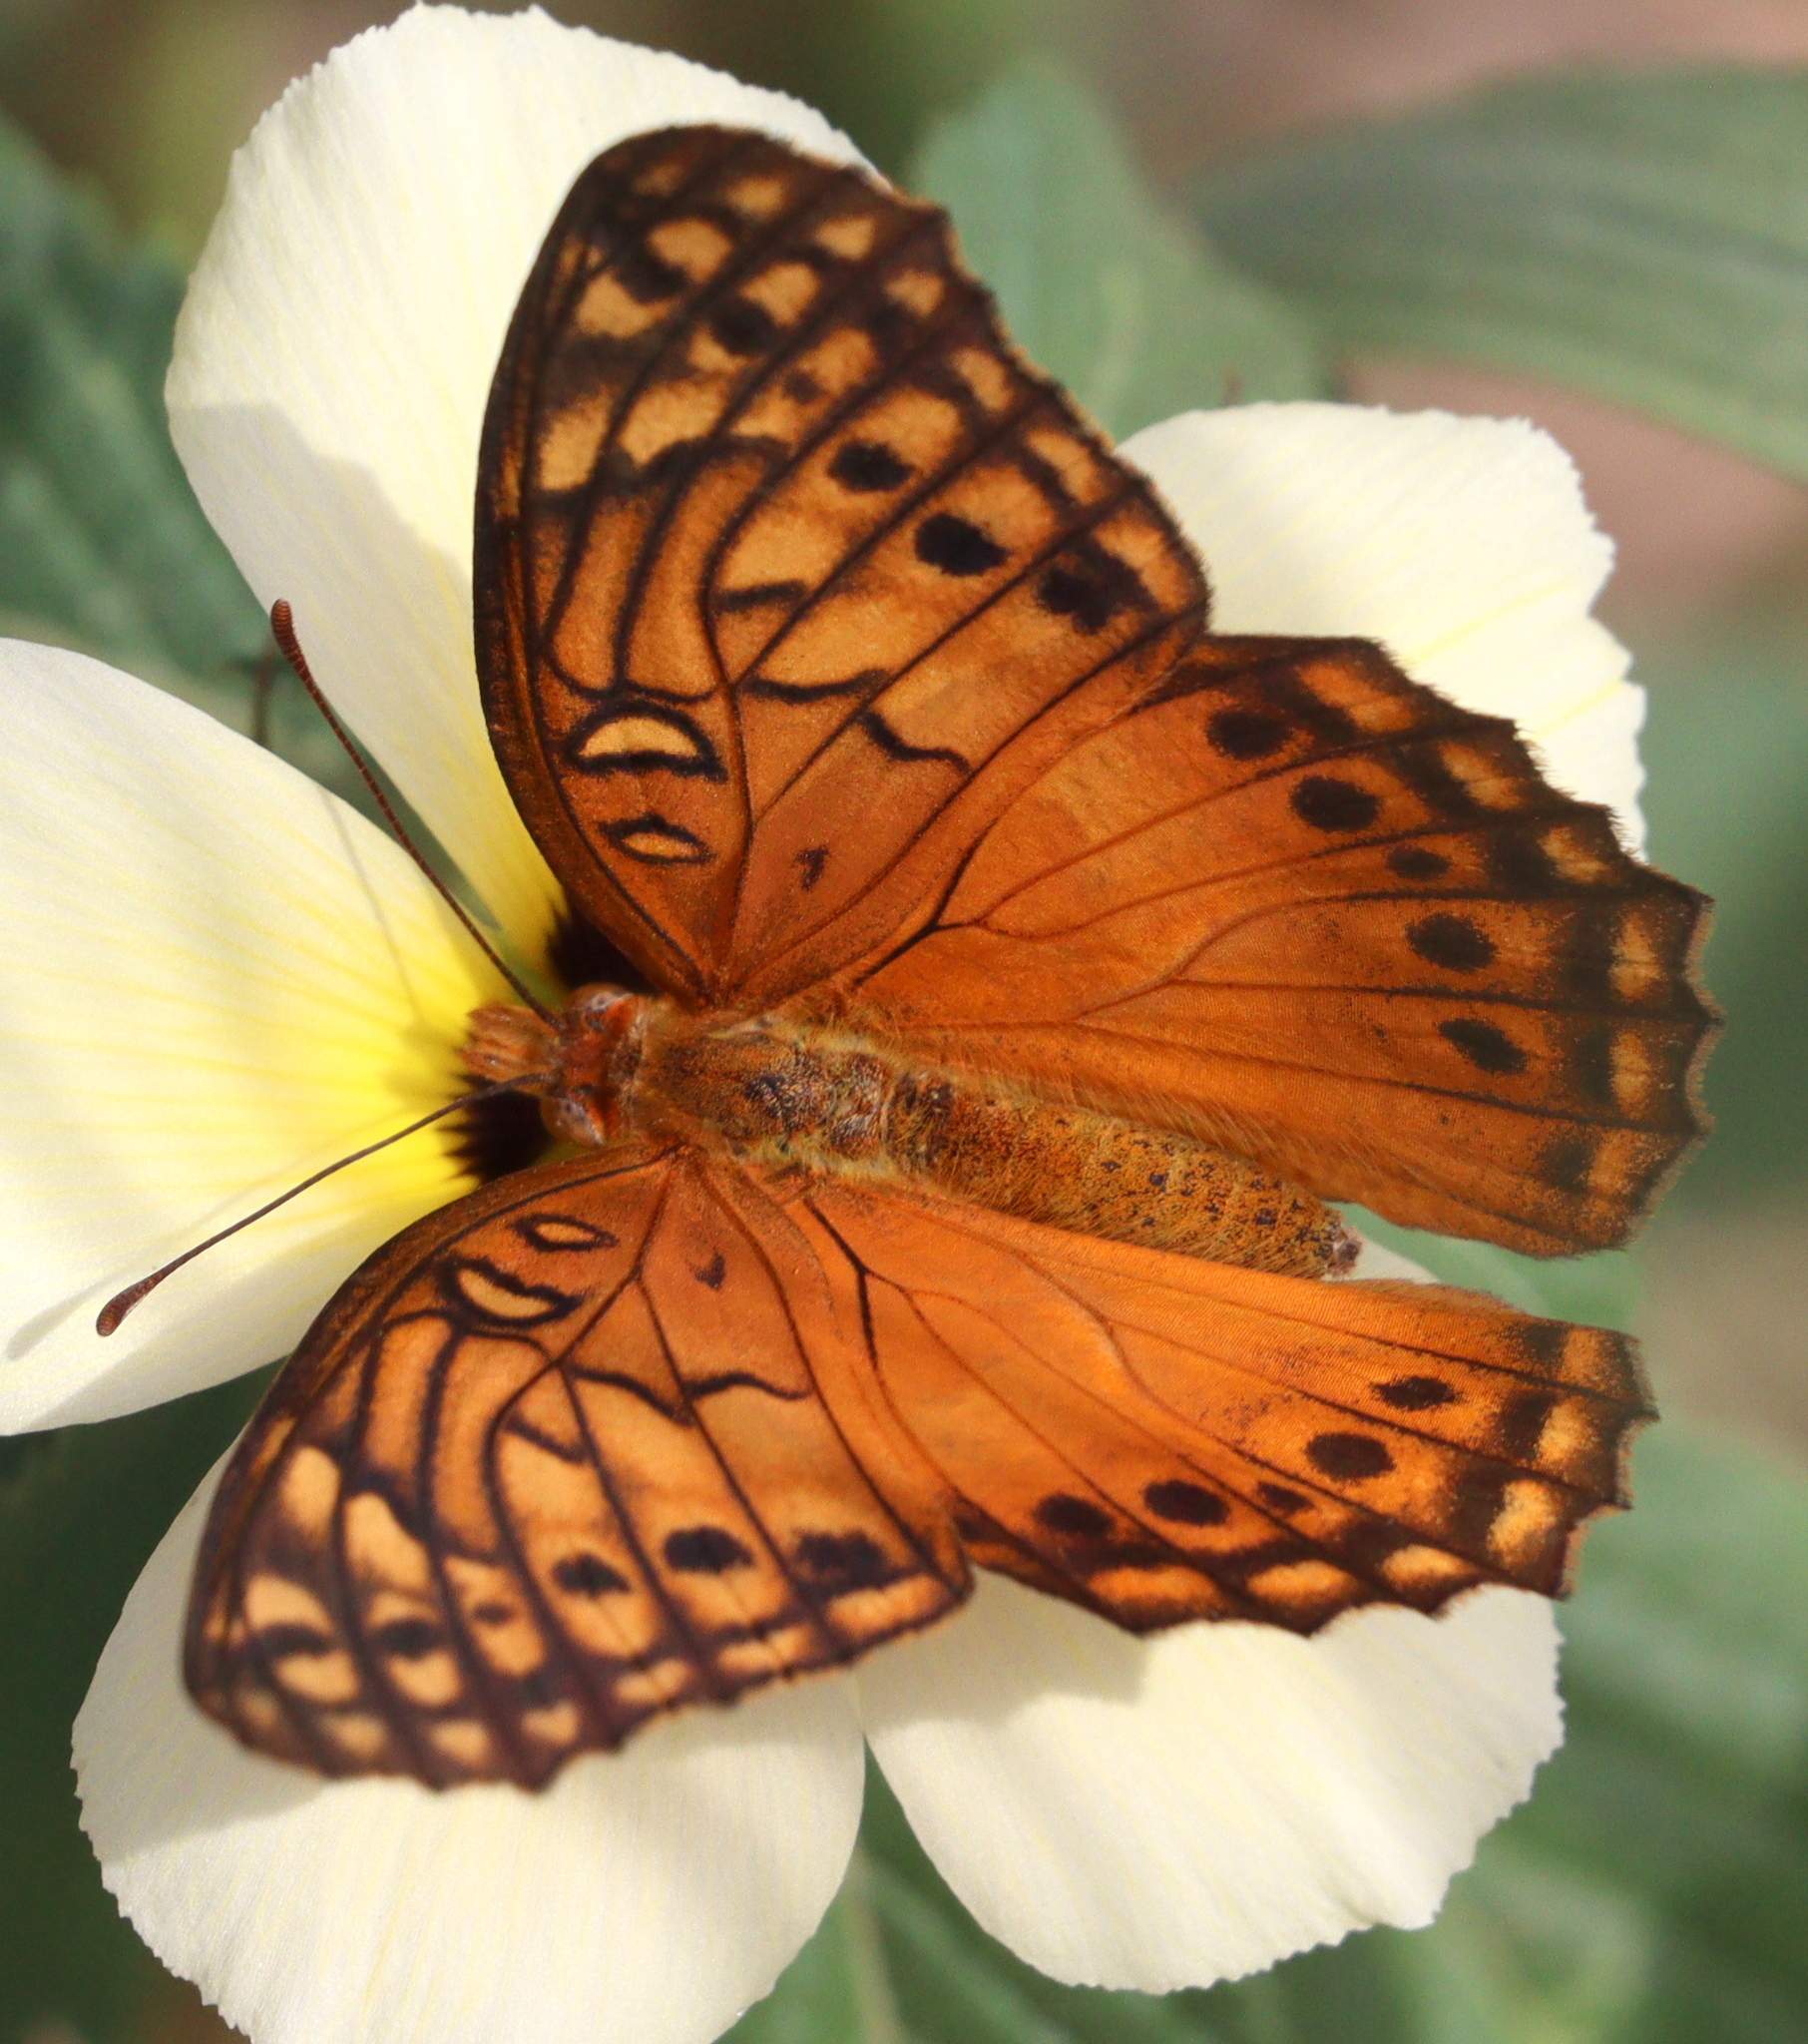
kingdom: Animalia
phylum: Arthropoda
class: Insecta
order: Lepidoptera
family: Nymphalidae
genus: Euptoieta
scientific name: Euptoieta hegesia
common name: Mexican fritillary
